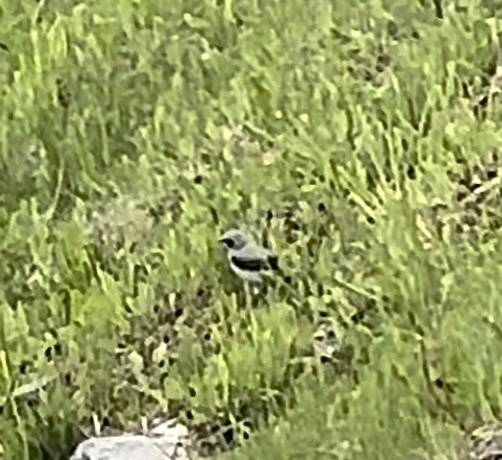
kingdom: Animalia
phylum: Chordata
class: Aves
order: Passeriformes
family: Muscicapidae
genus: Oenanthe
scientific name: Oenanthe oenanthe
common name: Northern wheatear
